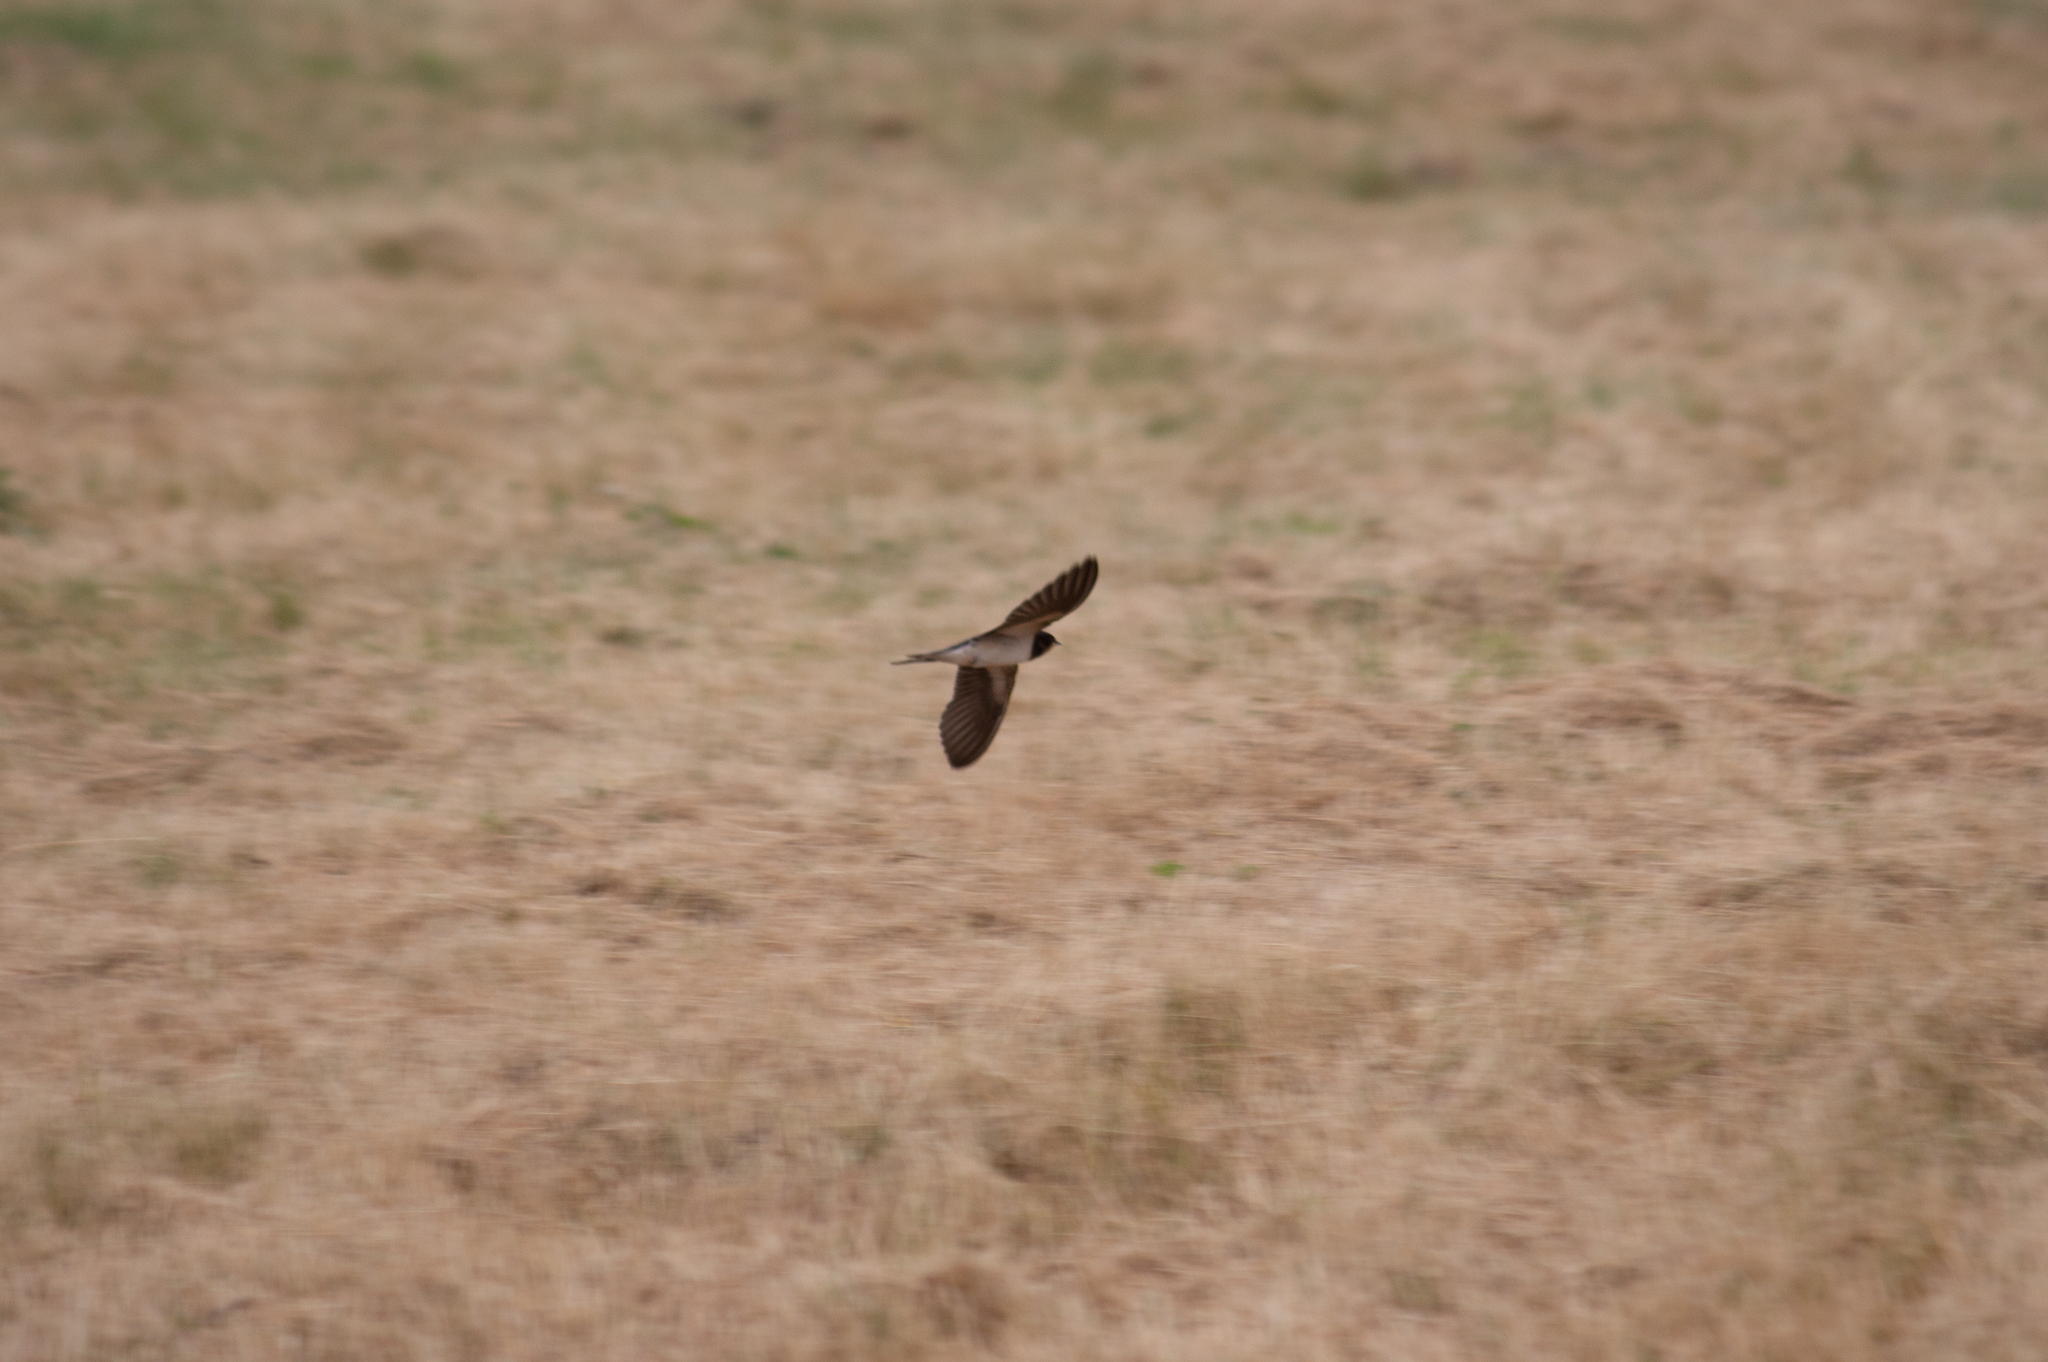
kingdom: Animalia
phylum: Chordata
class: Aves
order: Passeriformes
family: Hirundinidae
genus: Hirundo
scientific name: Hirundo rustica
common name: Barn swallow
